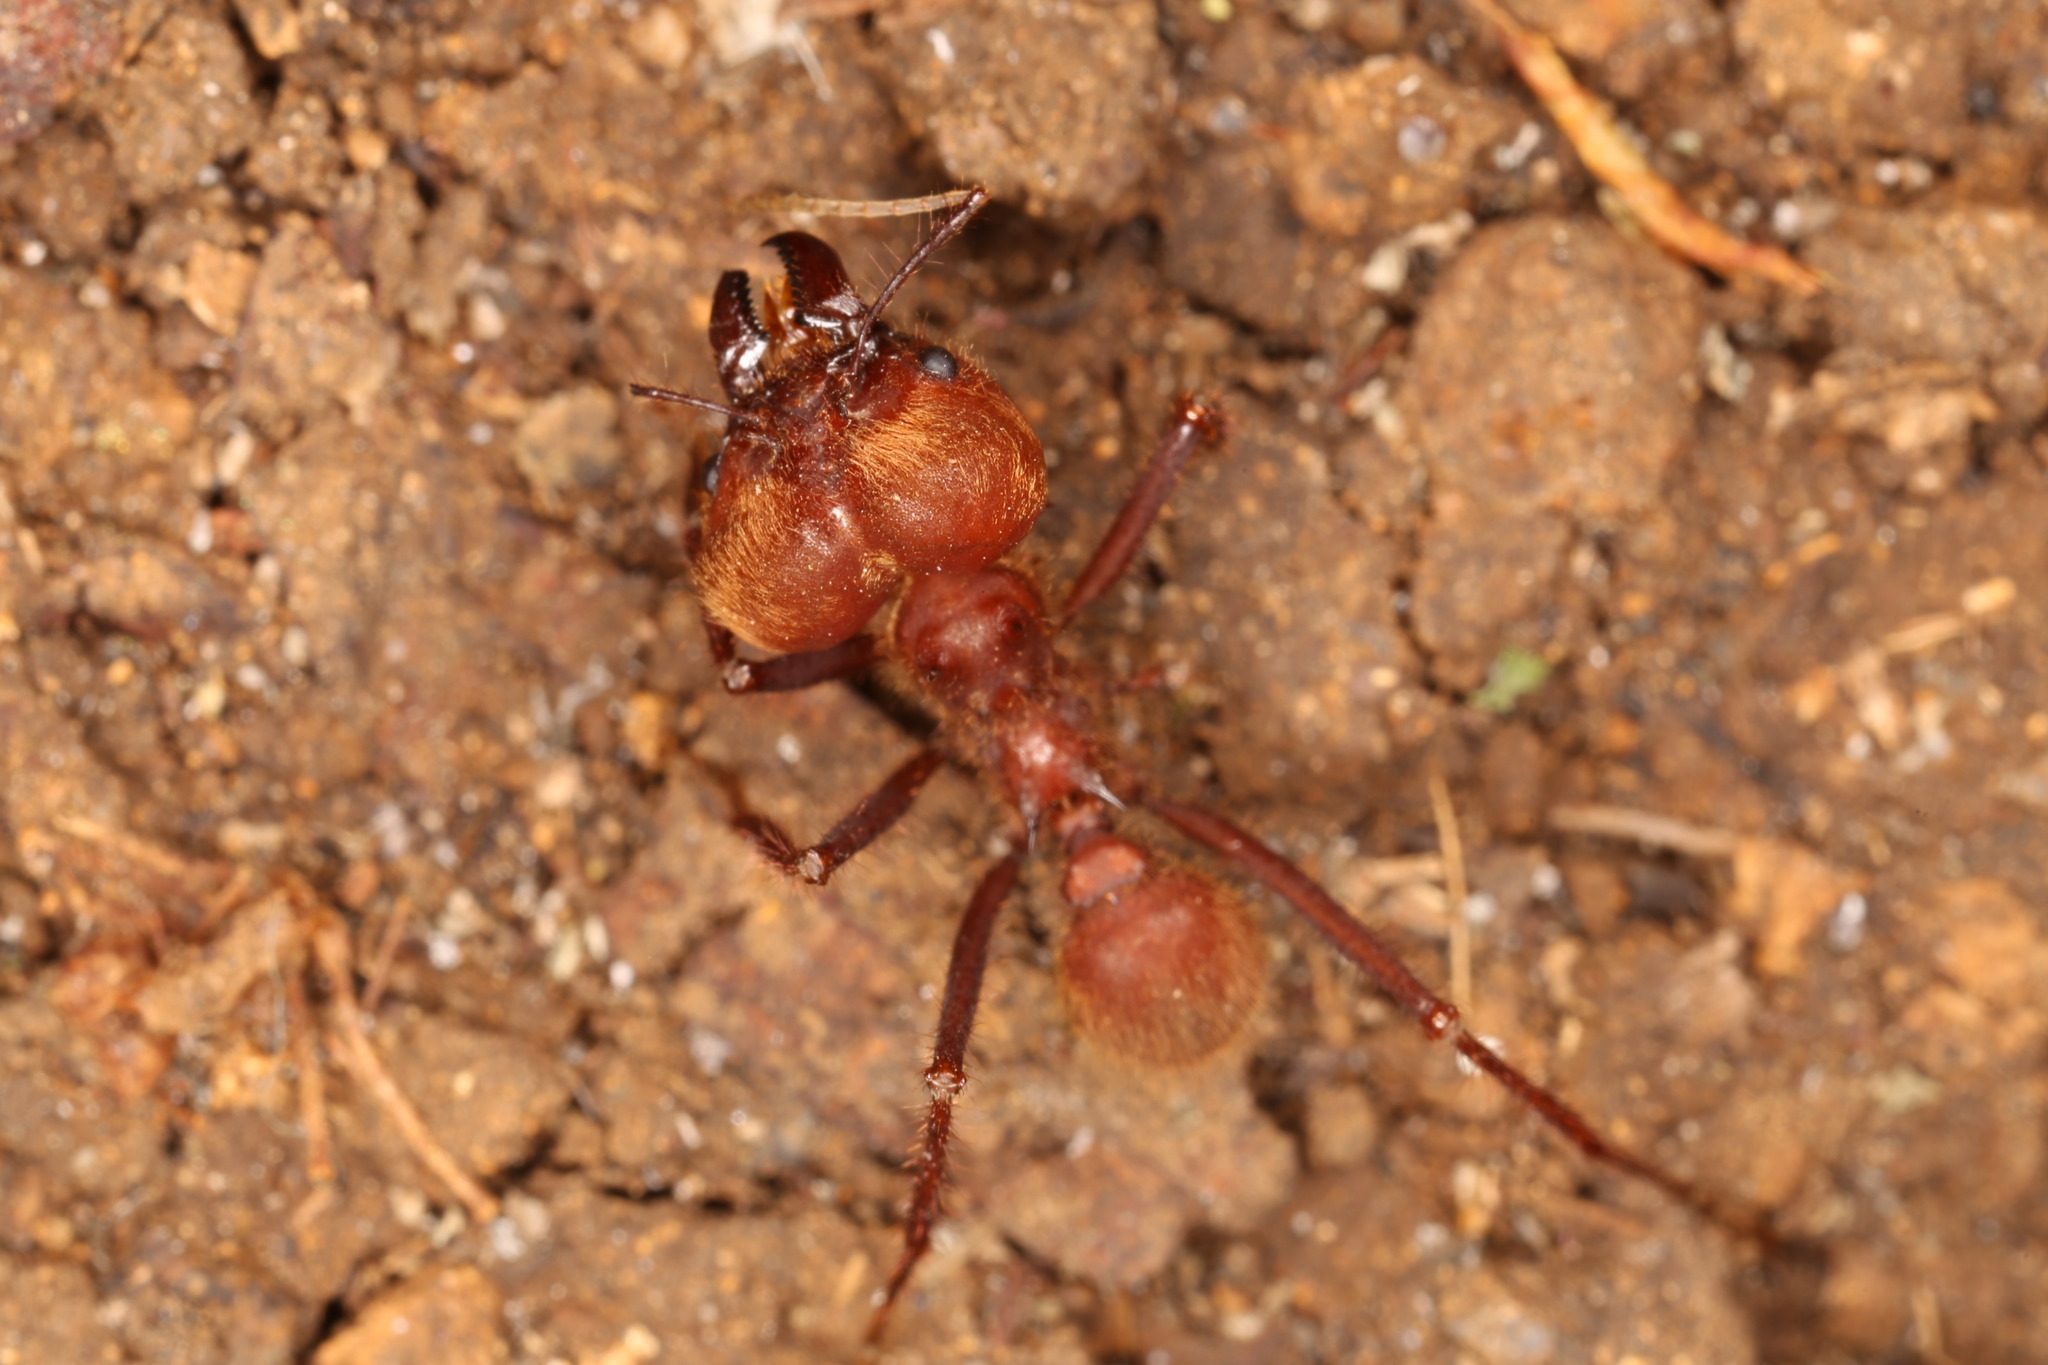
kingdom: Animalia
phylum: Arthropoda
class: Insecta
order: Hymenoptera
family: Formicidae
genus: Atta
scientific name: Atta cephalotes
